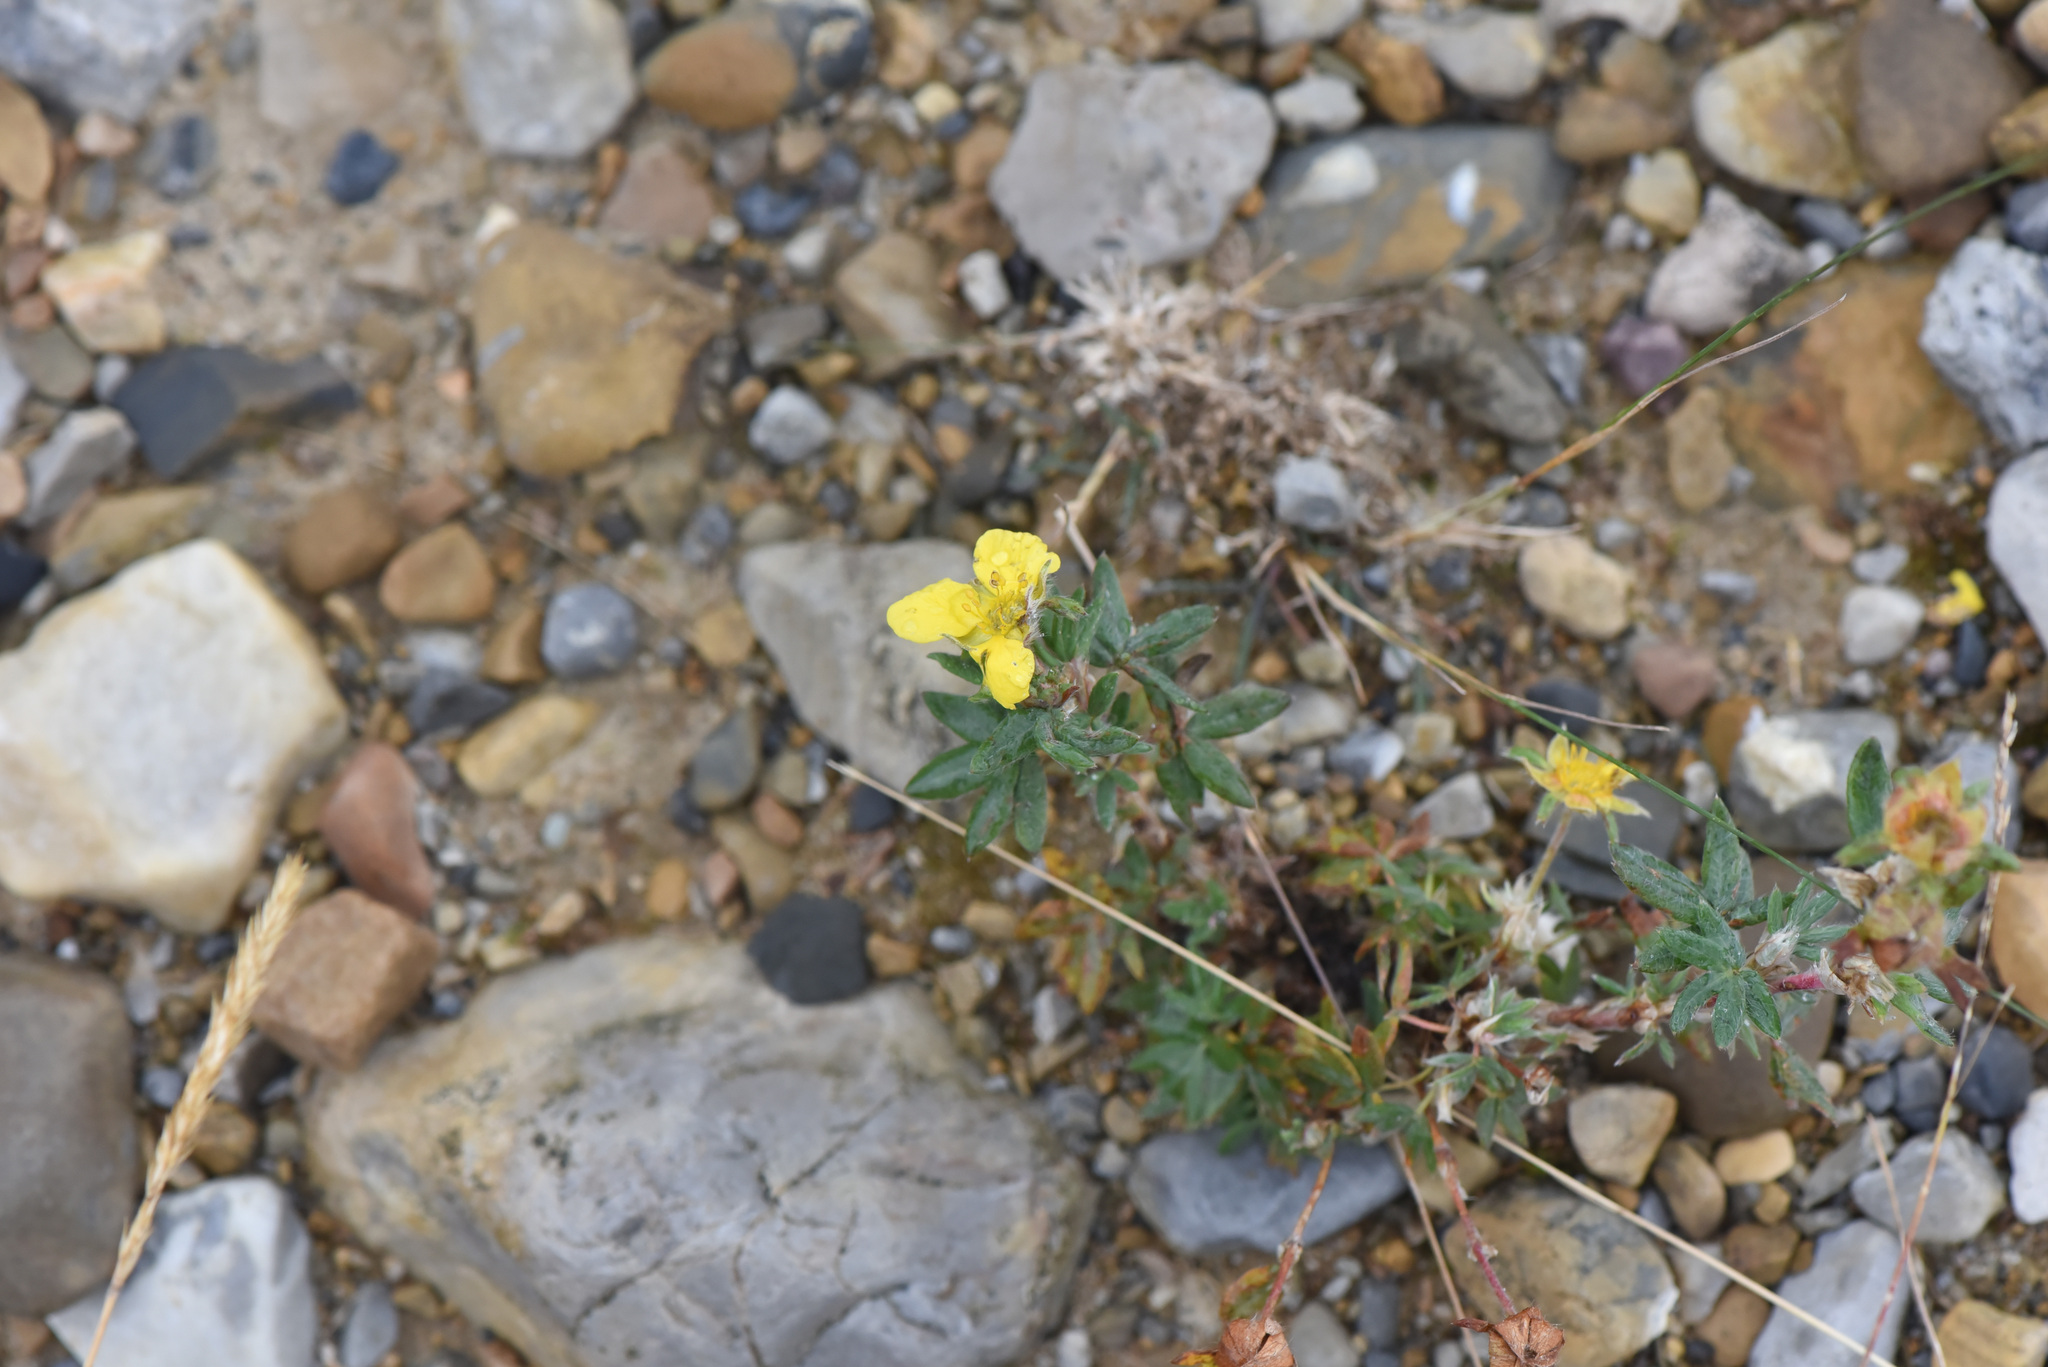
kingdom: Plantae
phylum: Tracheophyta
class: Magnoliopsida
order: Rosales
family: Rosaceae
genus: Dasiphora
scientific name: Dasiphora fruticosa
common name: Shrubby cinquefoil
